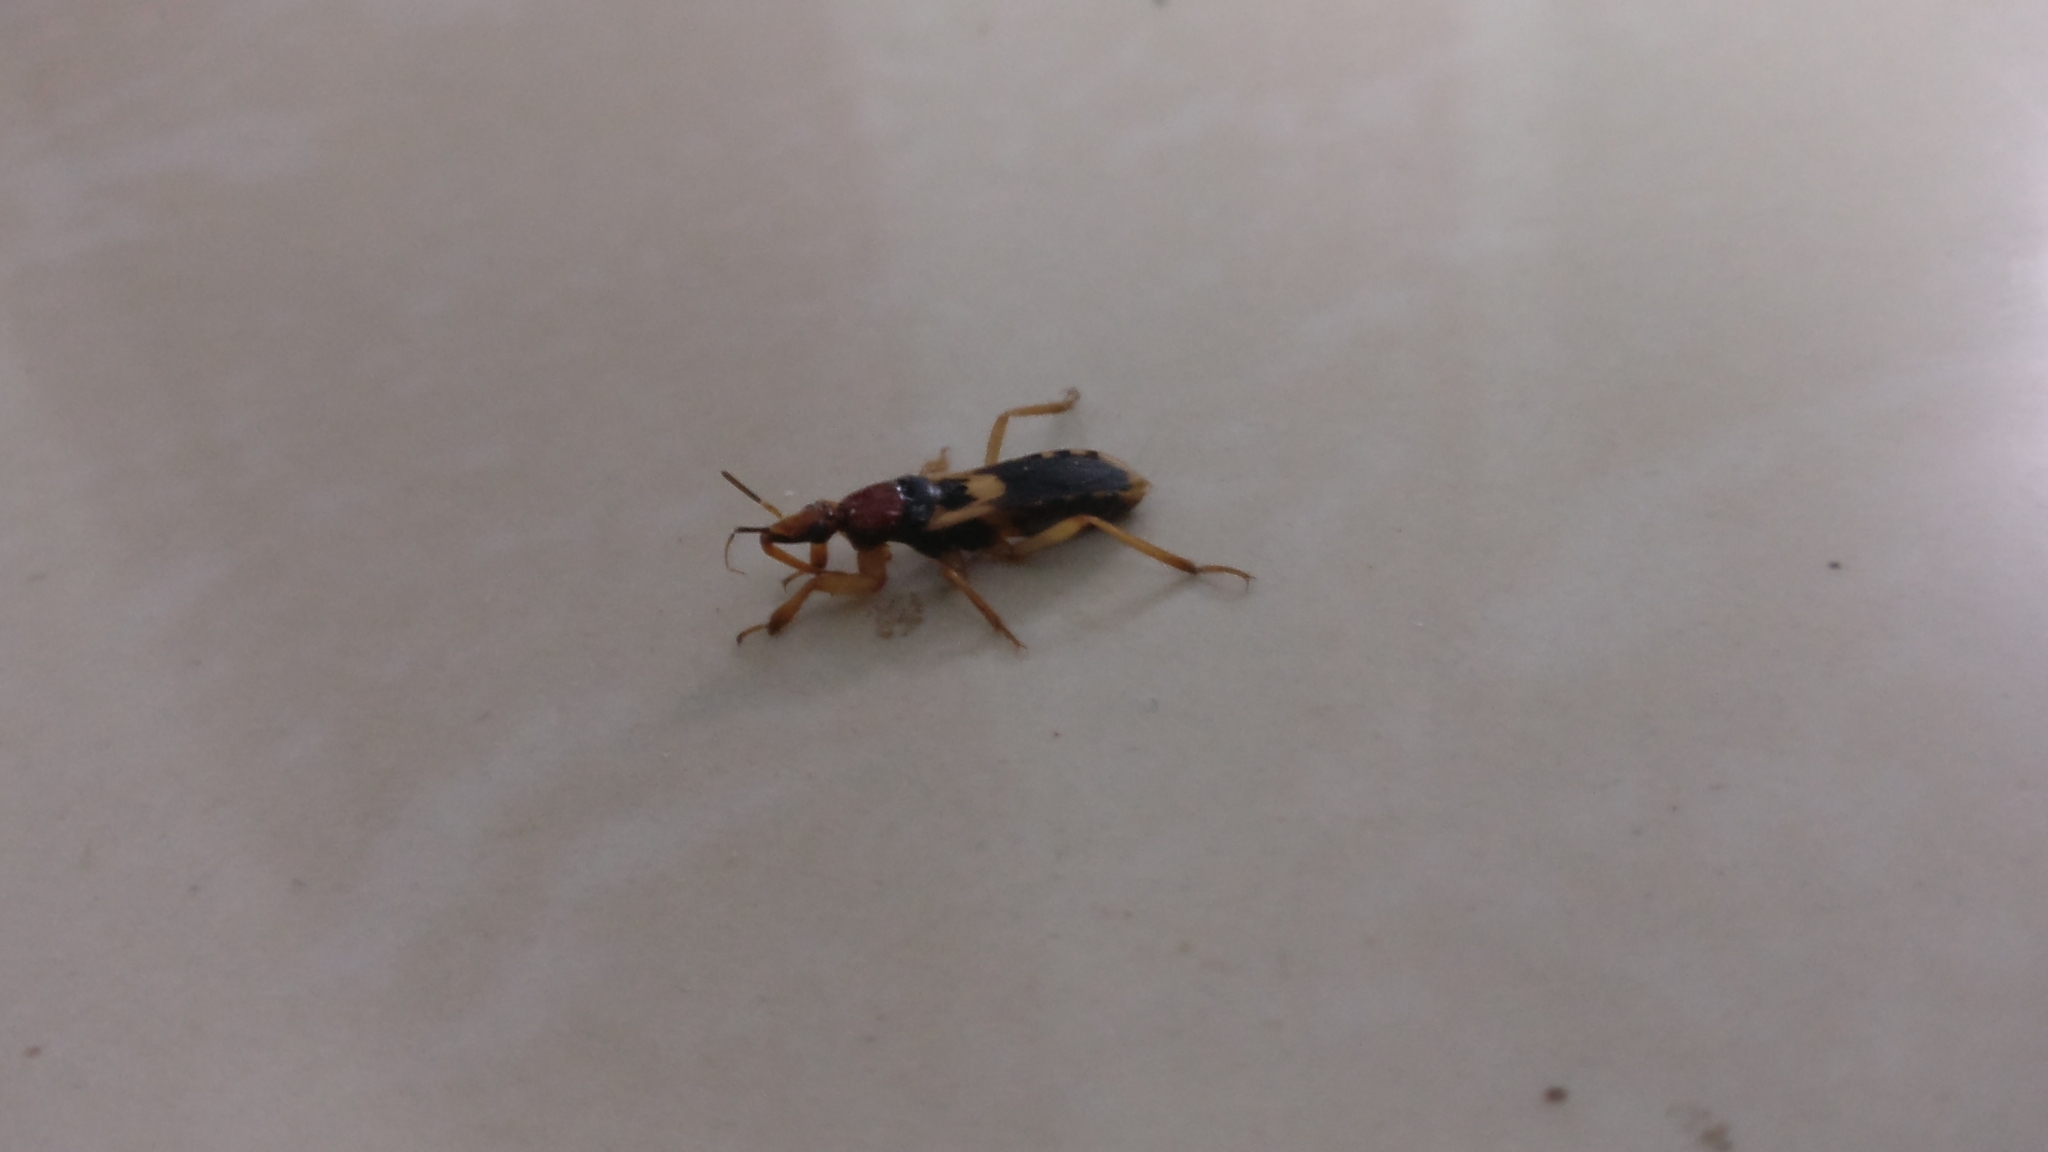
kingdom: Animalia
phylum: Arthropoda
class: Insecta
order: Hemiptera
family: Reduviidae
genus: Sirthenea
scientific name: Sirthenea flavipes
